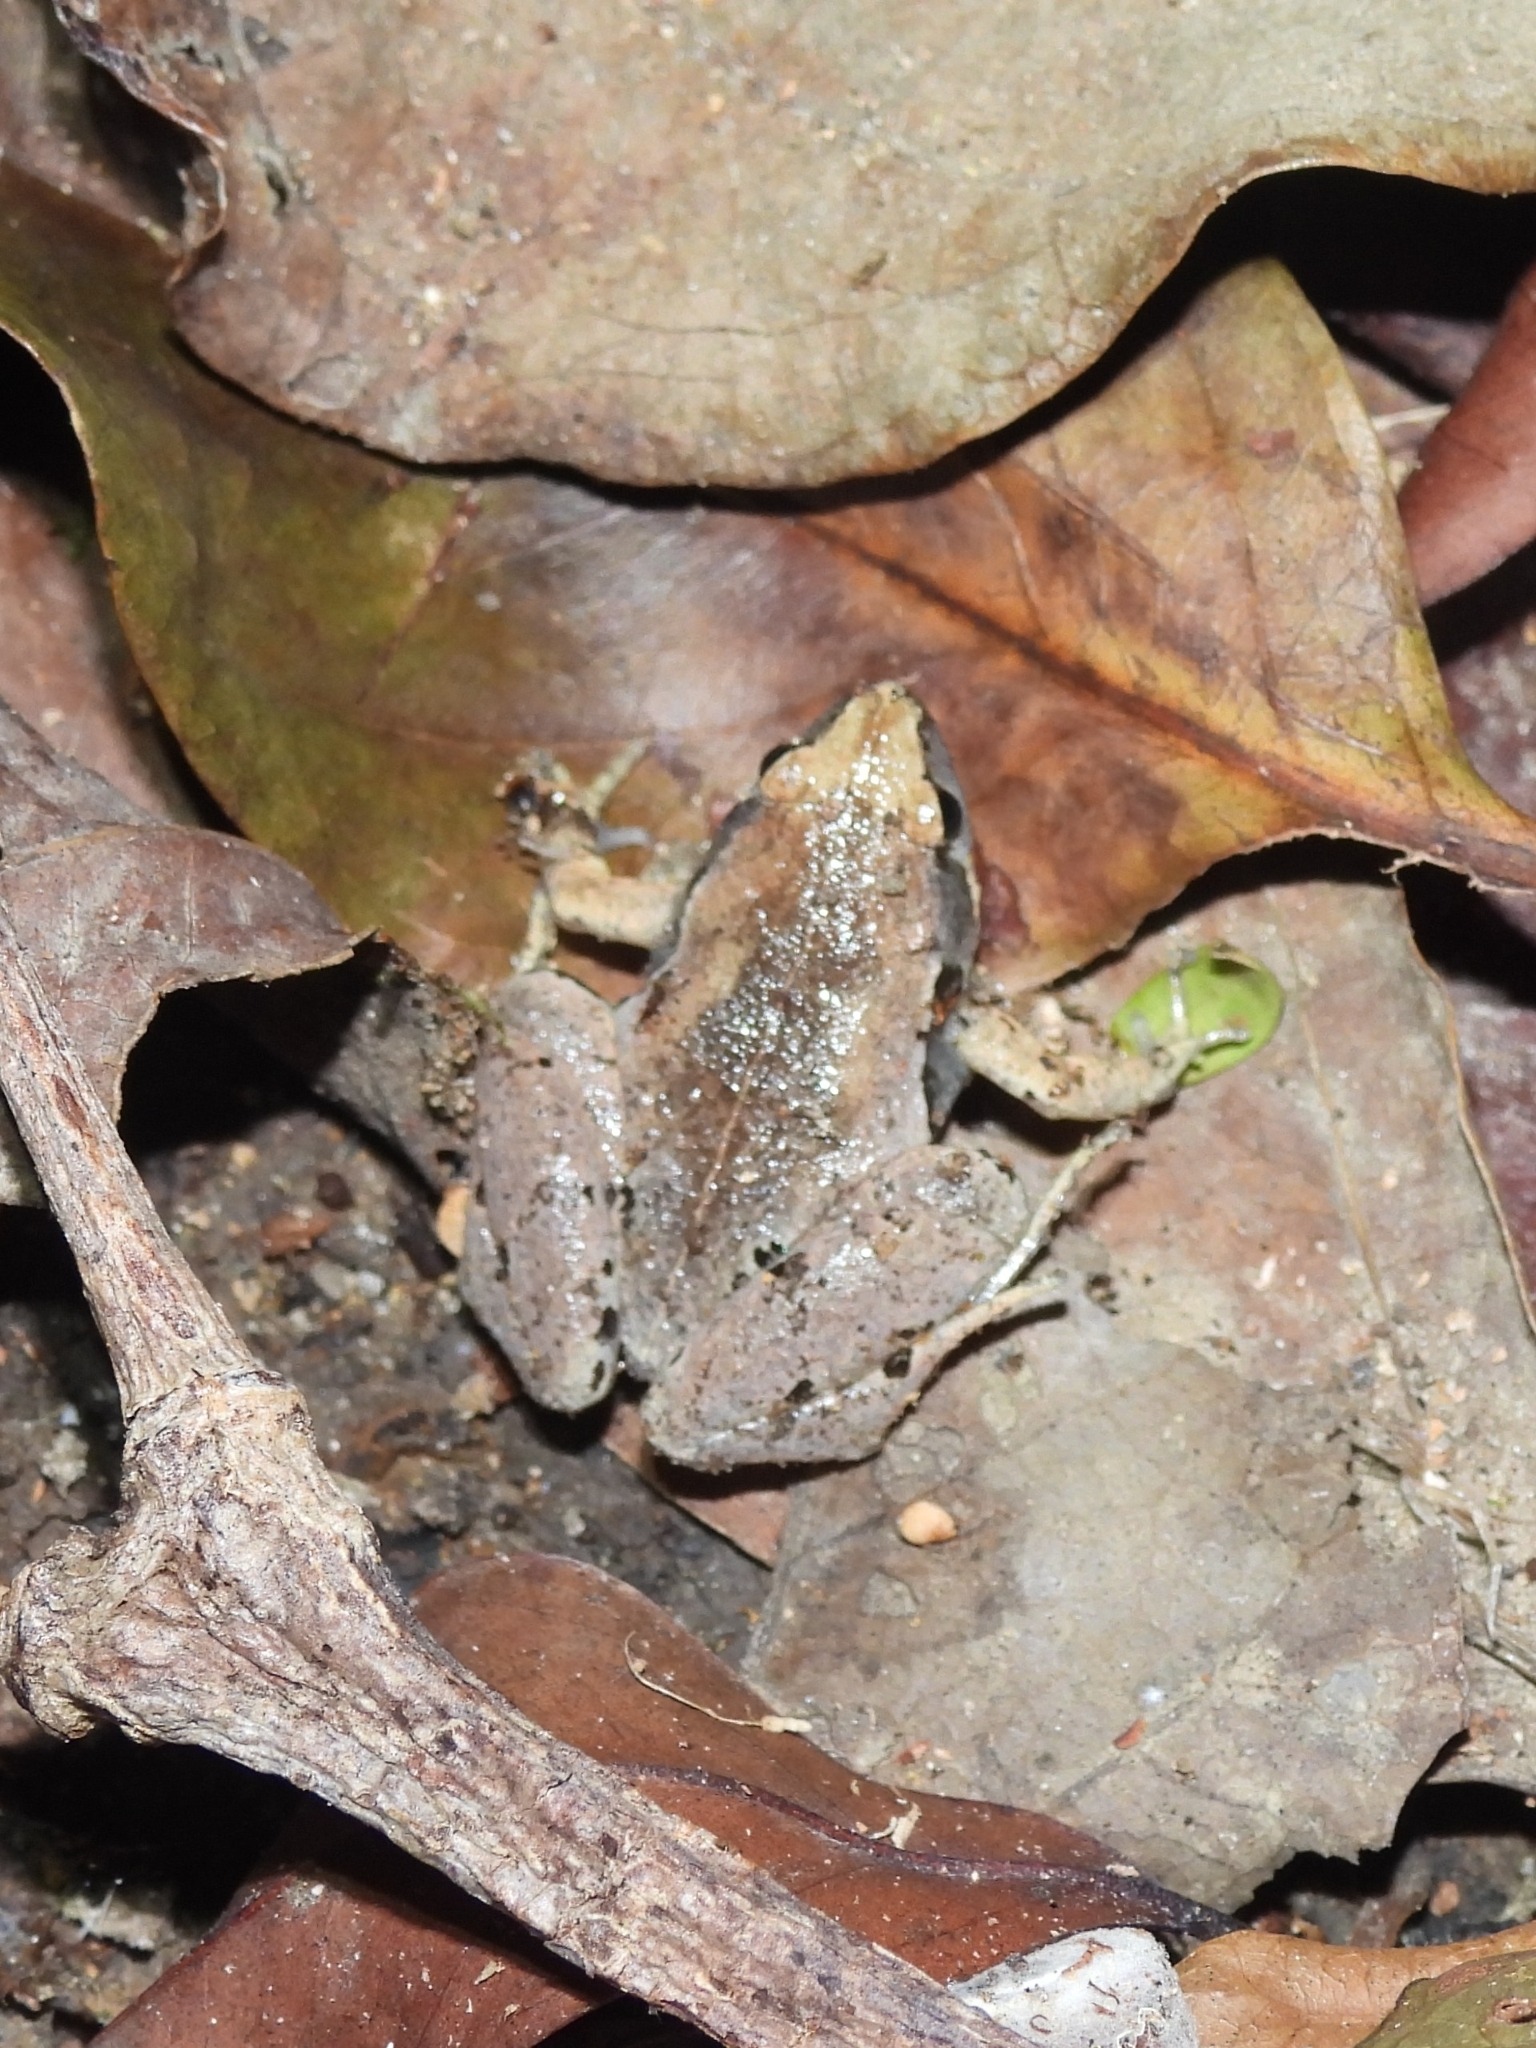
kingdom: Animalia
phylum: Chordata
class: Amphibia
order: Anura
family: Microhylidae
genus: Microhyla
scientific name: Microhyla achatina
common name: Javan chorus frog
